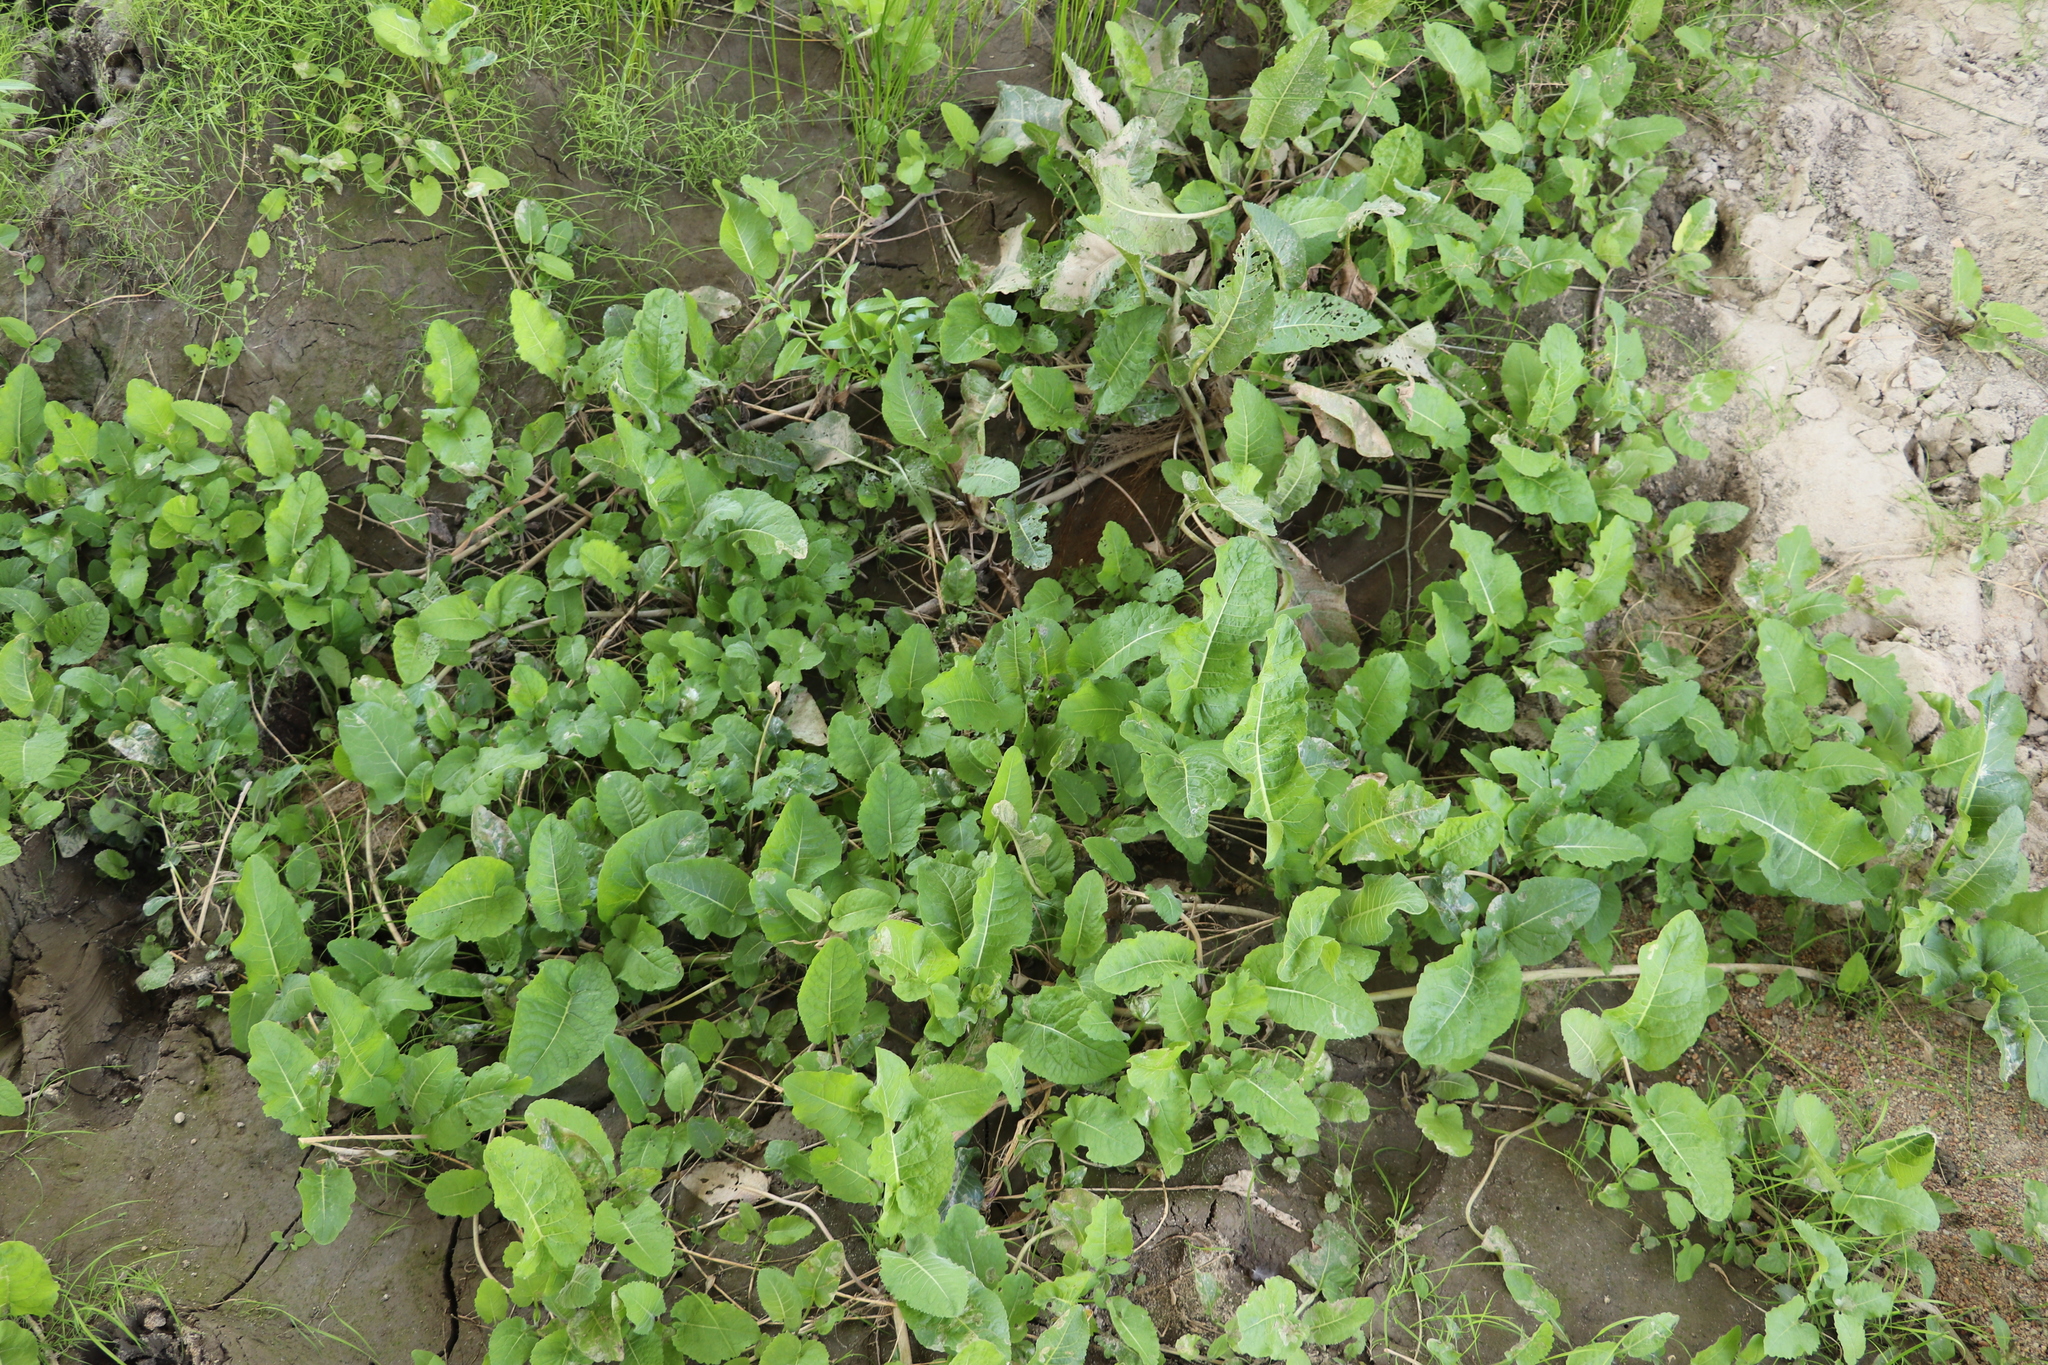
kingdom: Plantae
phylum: Tracheophyta
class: Magnoliopsida
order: Brassicales
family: Brassicaceae
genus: Rorippa
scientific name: Rorippa amphibia
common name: Great yellow-cress
